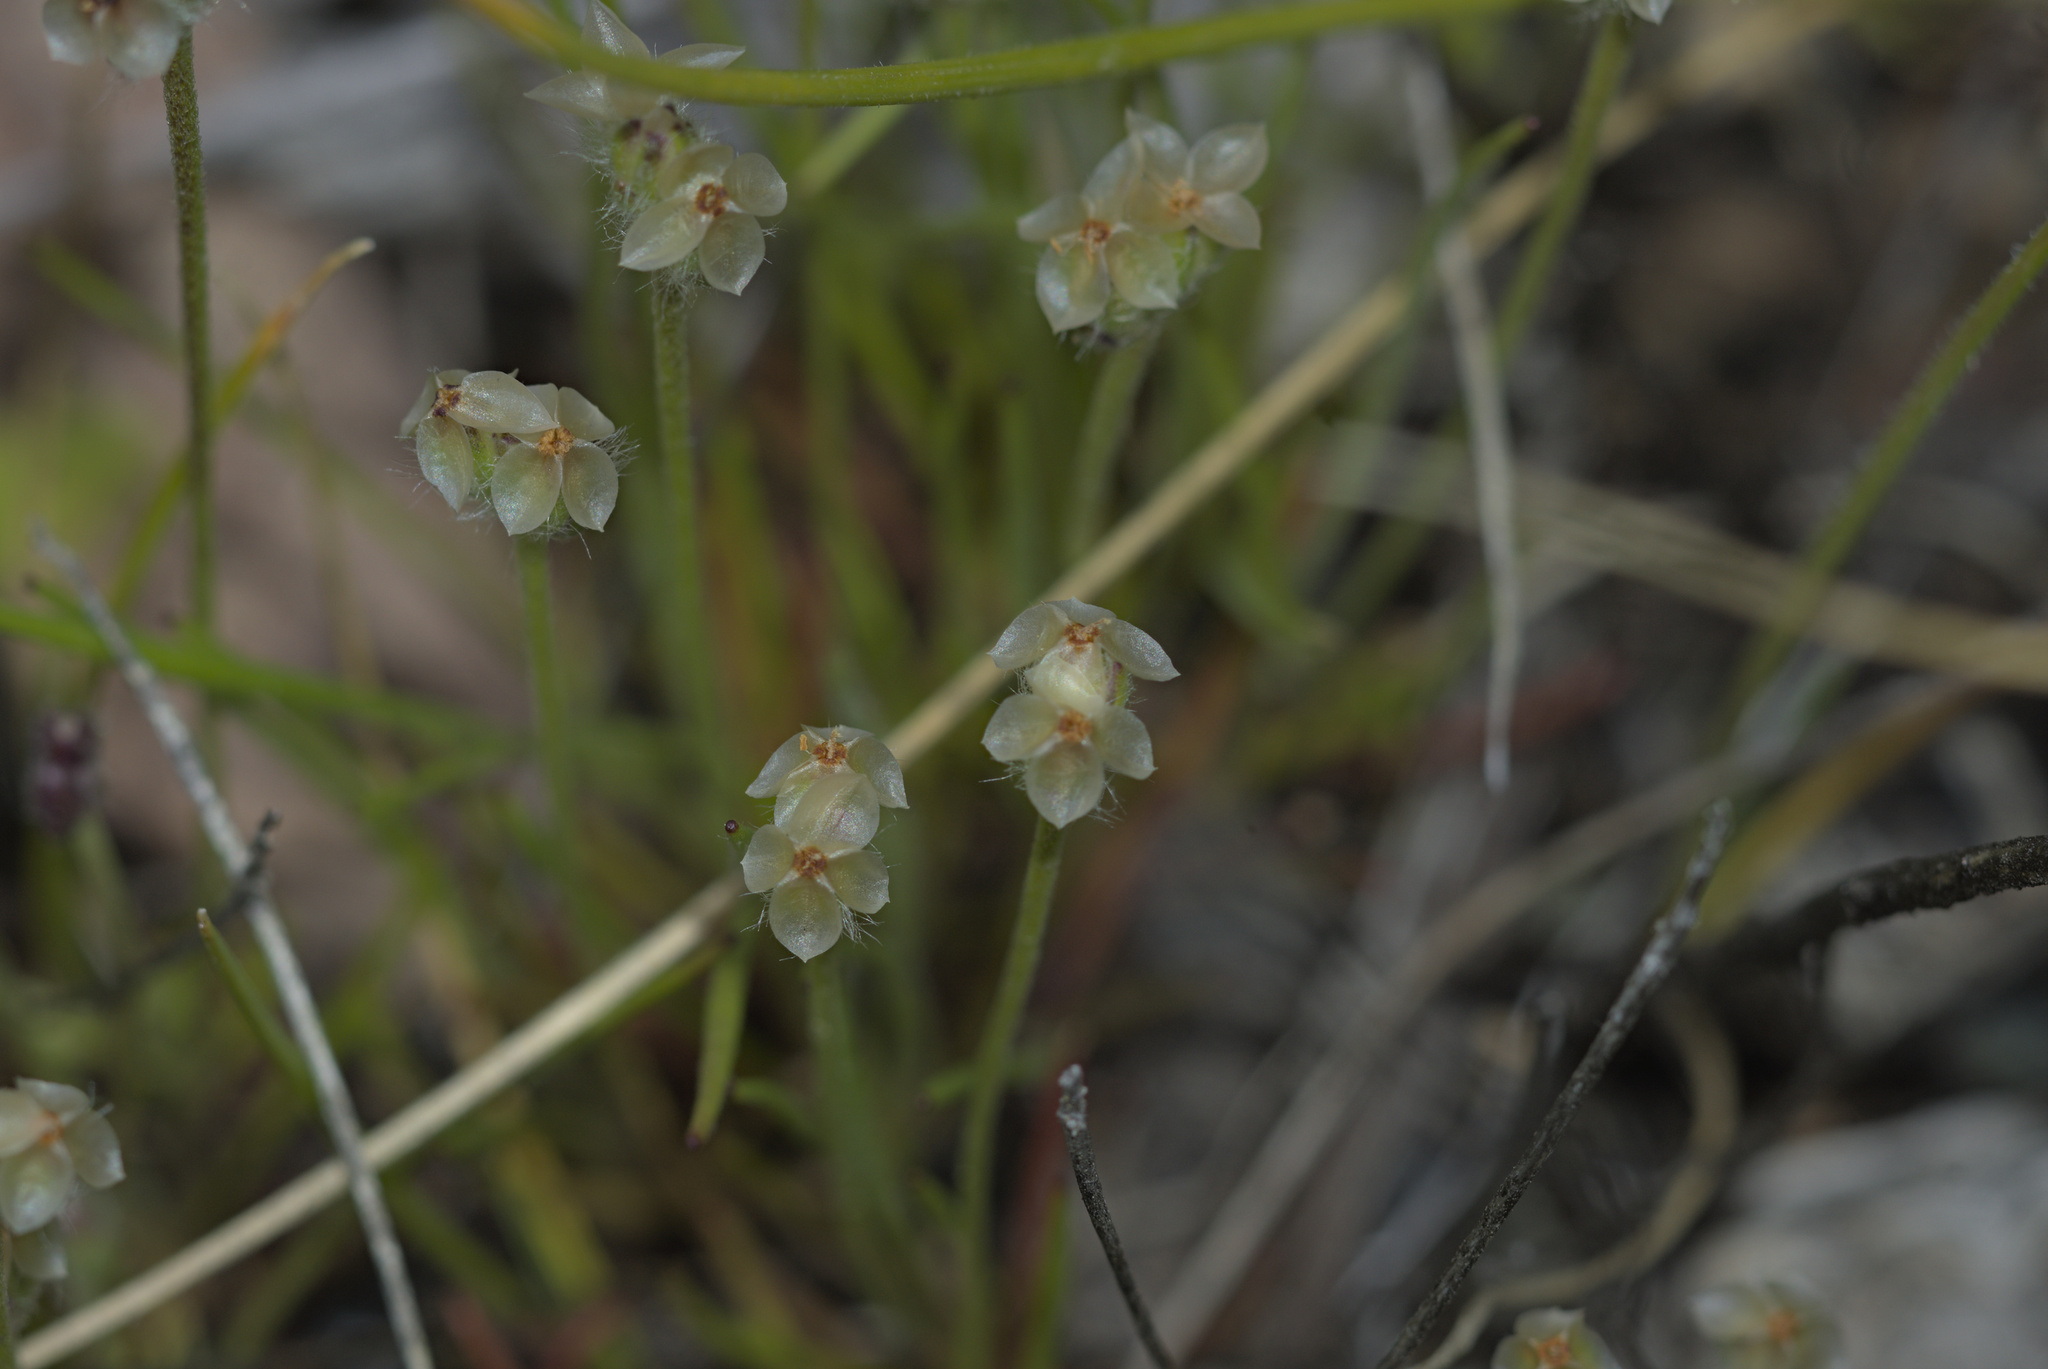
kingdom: Plantae
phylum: Tracheophyta
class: Magnoliopsida
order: Lamiales
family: Plantaginaceae
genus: Plantago
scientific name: Plantago erecta
